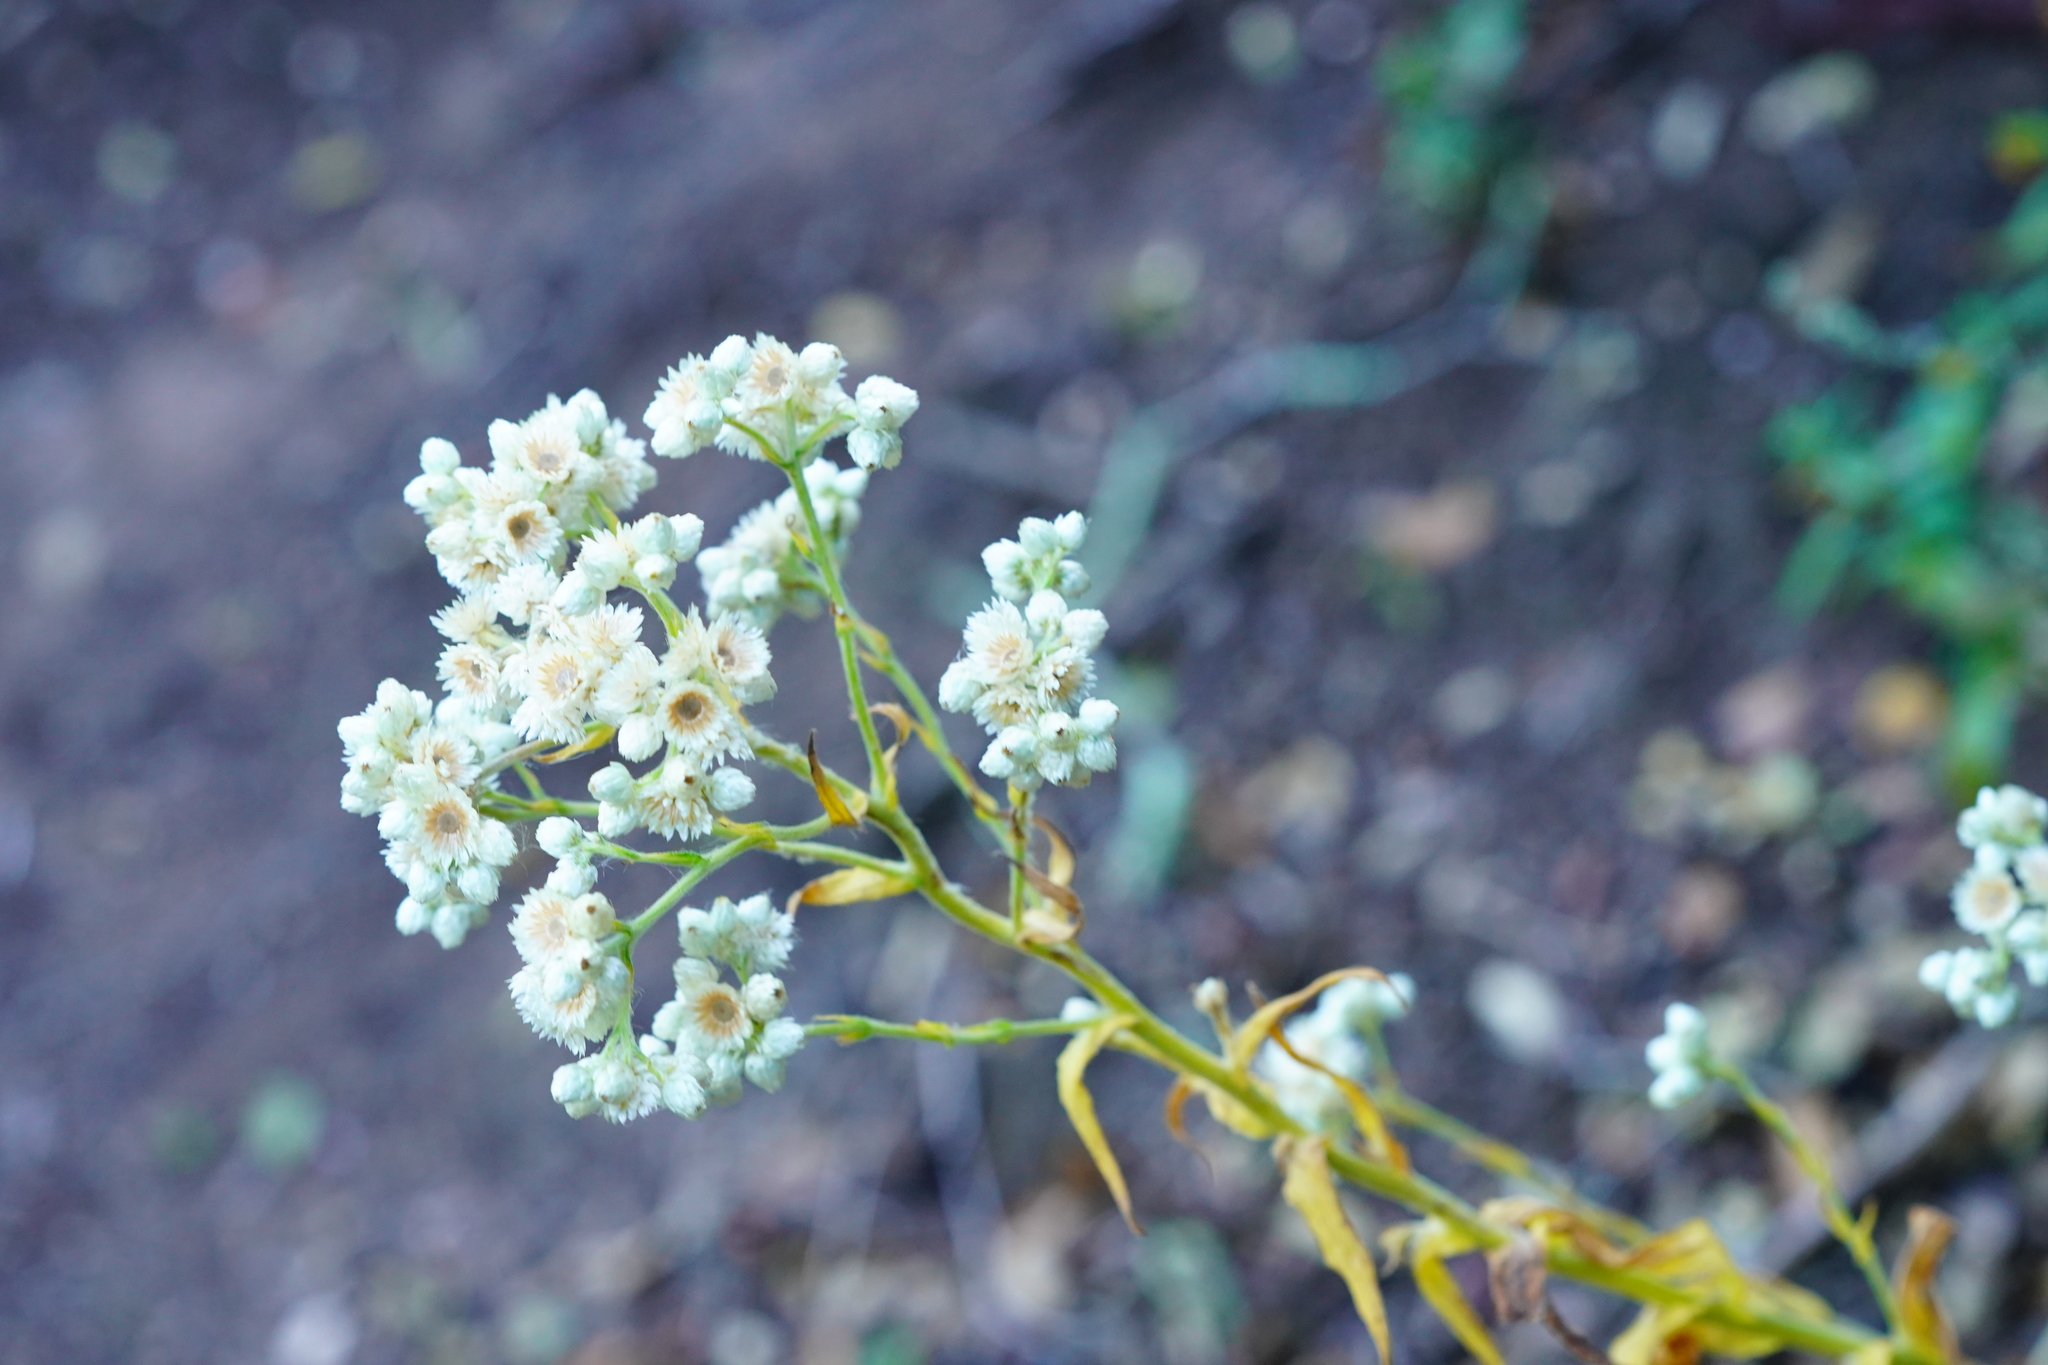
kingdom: Plantae
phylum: Tracheophyta
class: Magnoliopsida
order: Asterales
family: Asteraceae
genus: Anaphalis
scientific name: Anaphalis margaritacea
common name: Pearly everlasting
